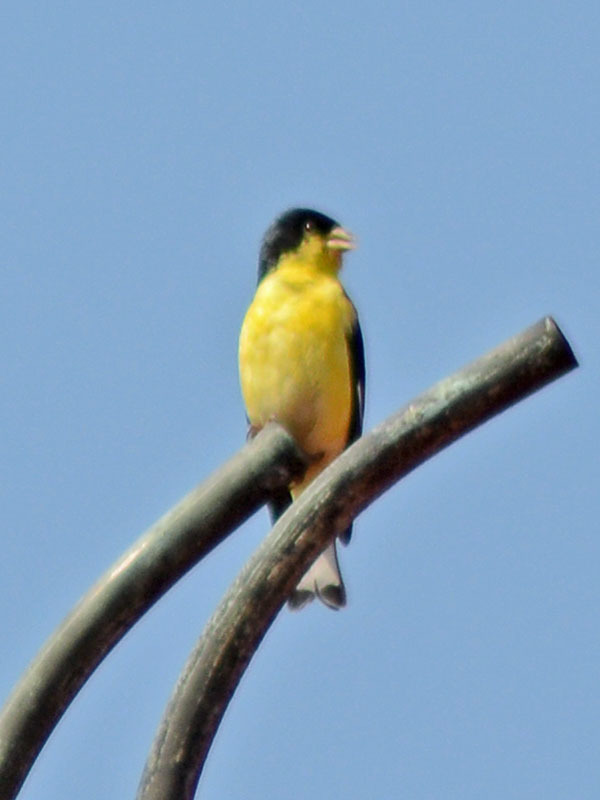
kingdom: Animalia
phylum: Chordata
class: Aves
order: Passeriformes
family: Fringillidae
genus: Spinus
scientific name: Spinus psaltria
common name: Lesser goldfinch
